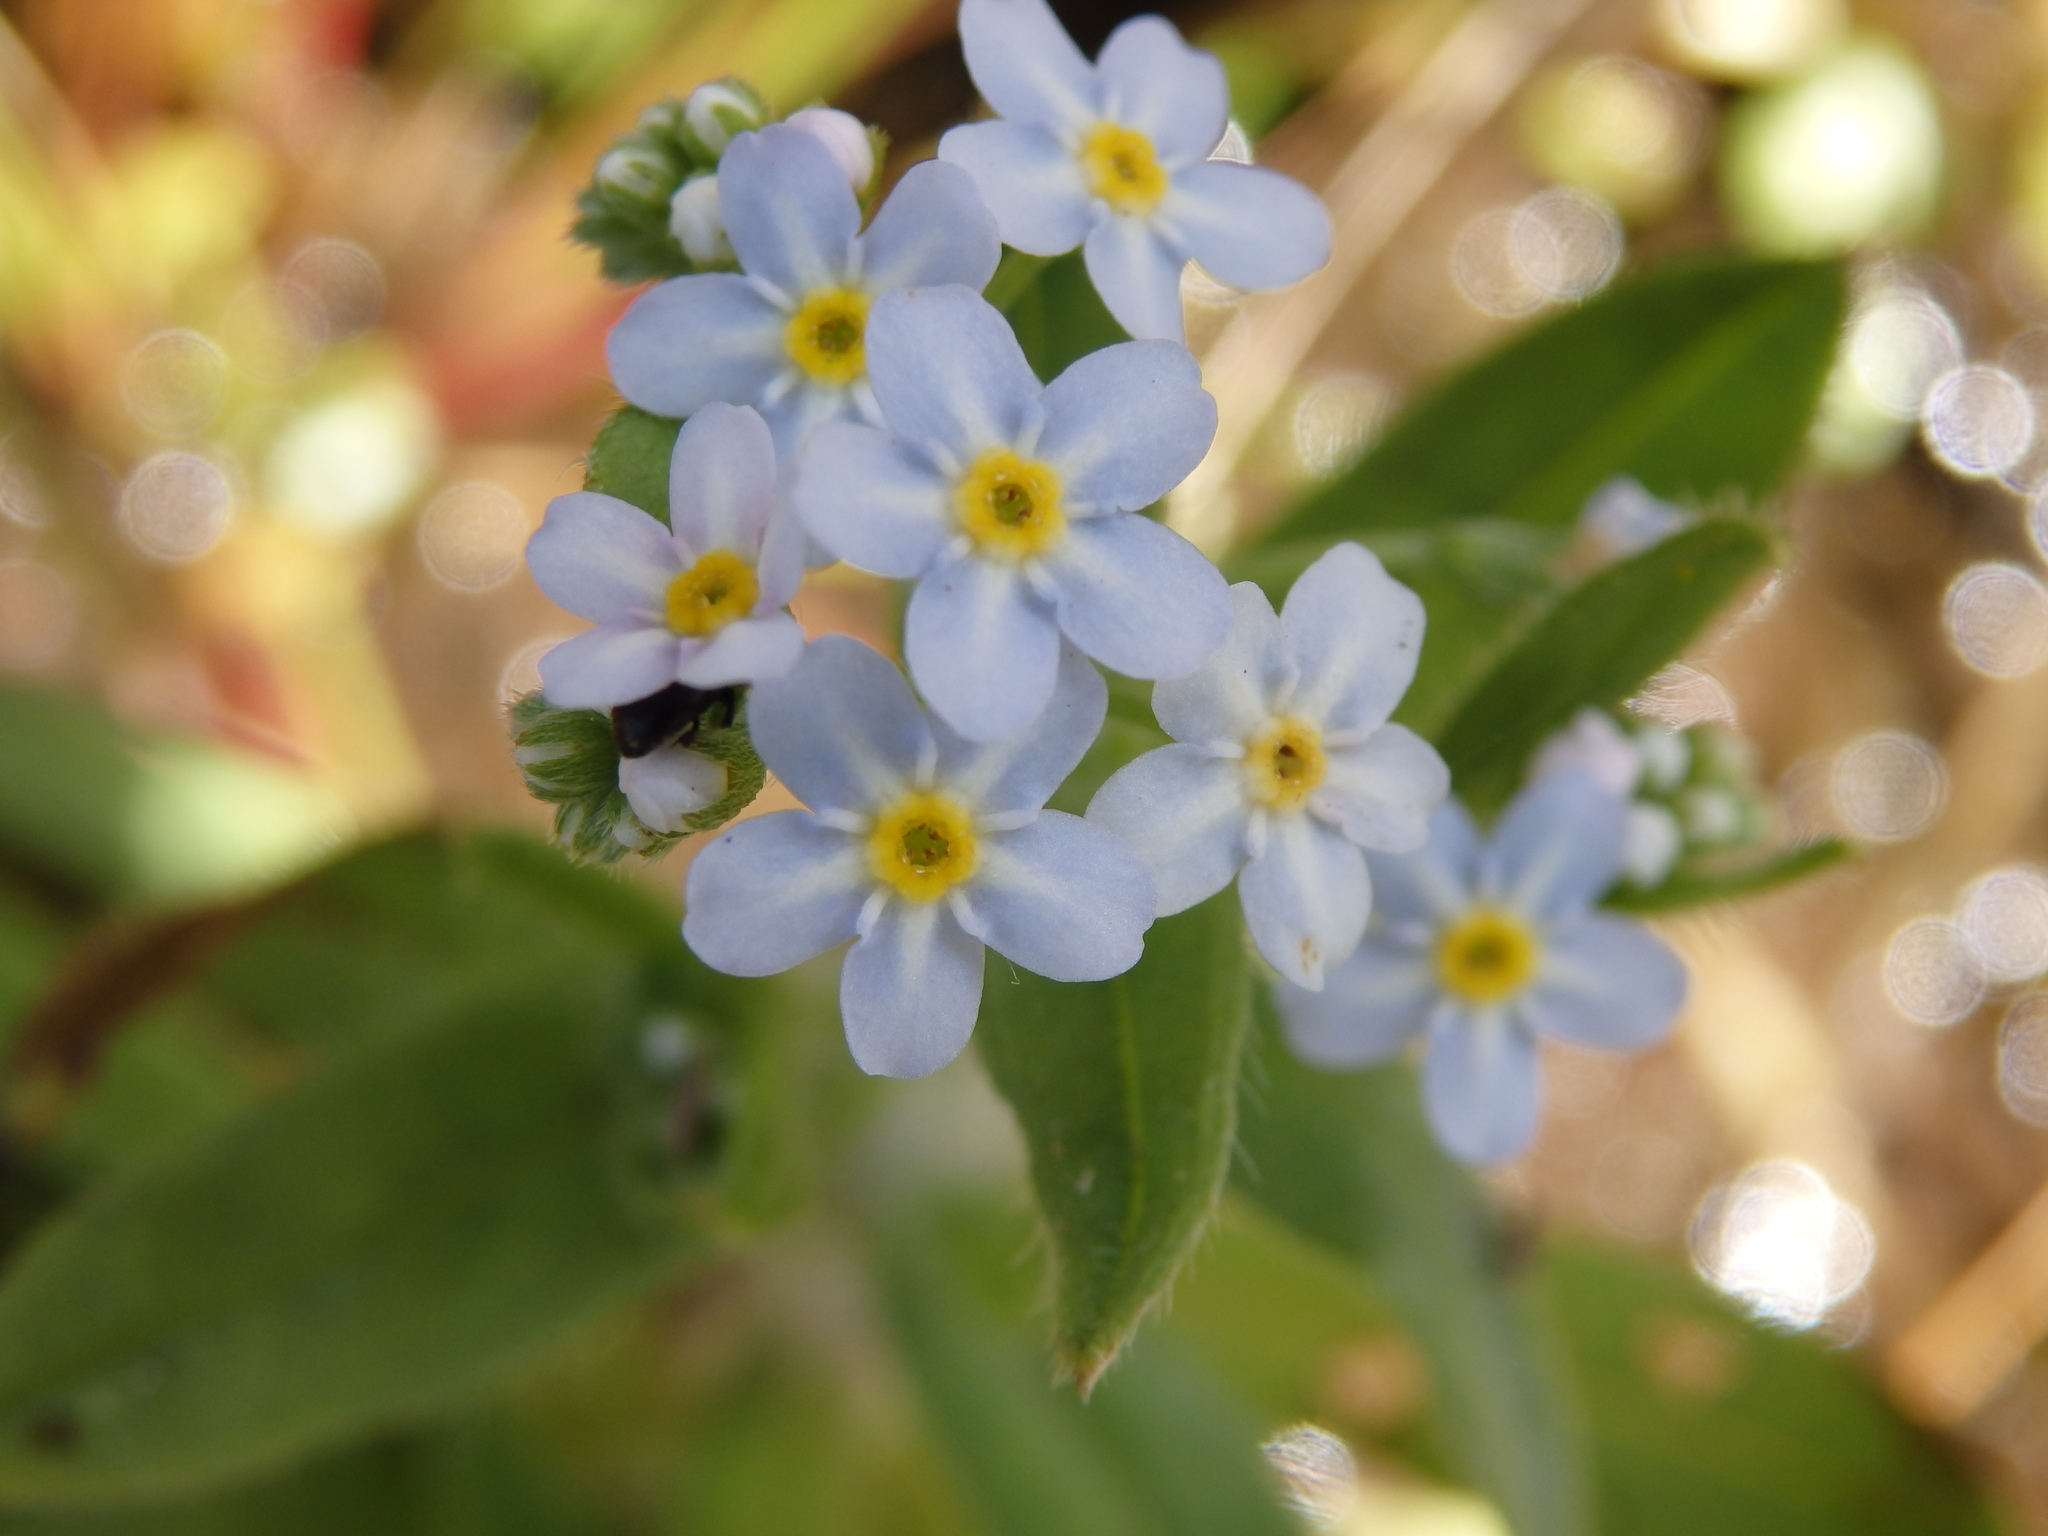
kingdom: Plantae
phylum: Tracheophyta
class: Magnoliopsida
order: Boraginales
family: Boraginaceae
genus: Myosotis
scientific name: Myosotis welwitschii
